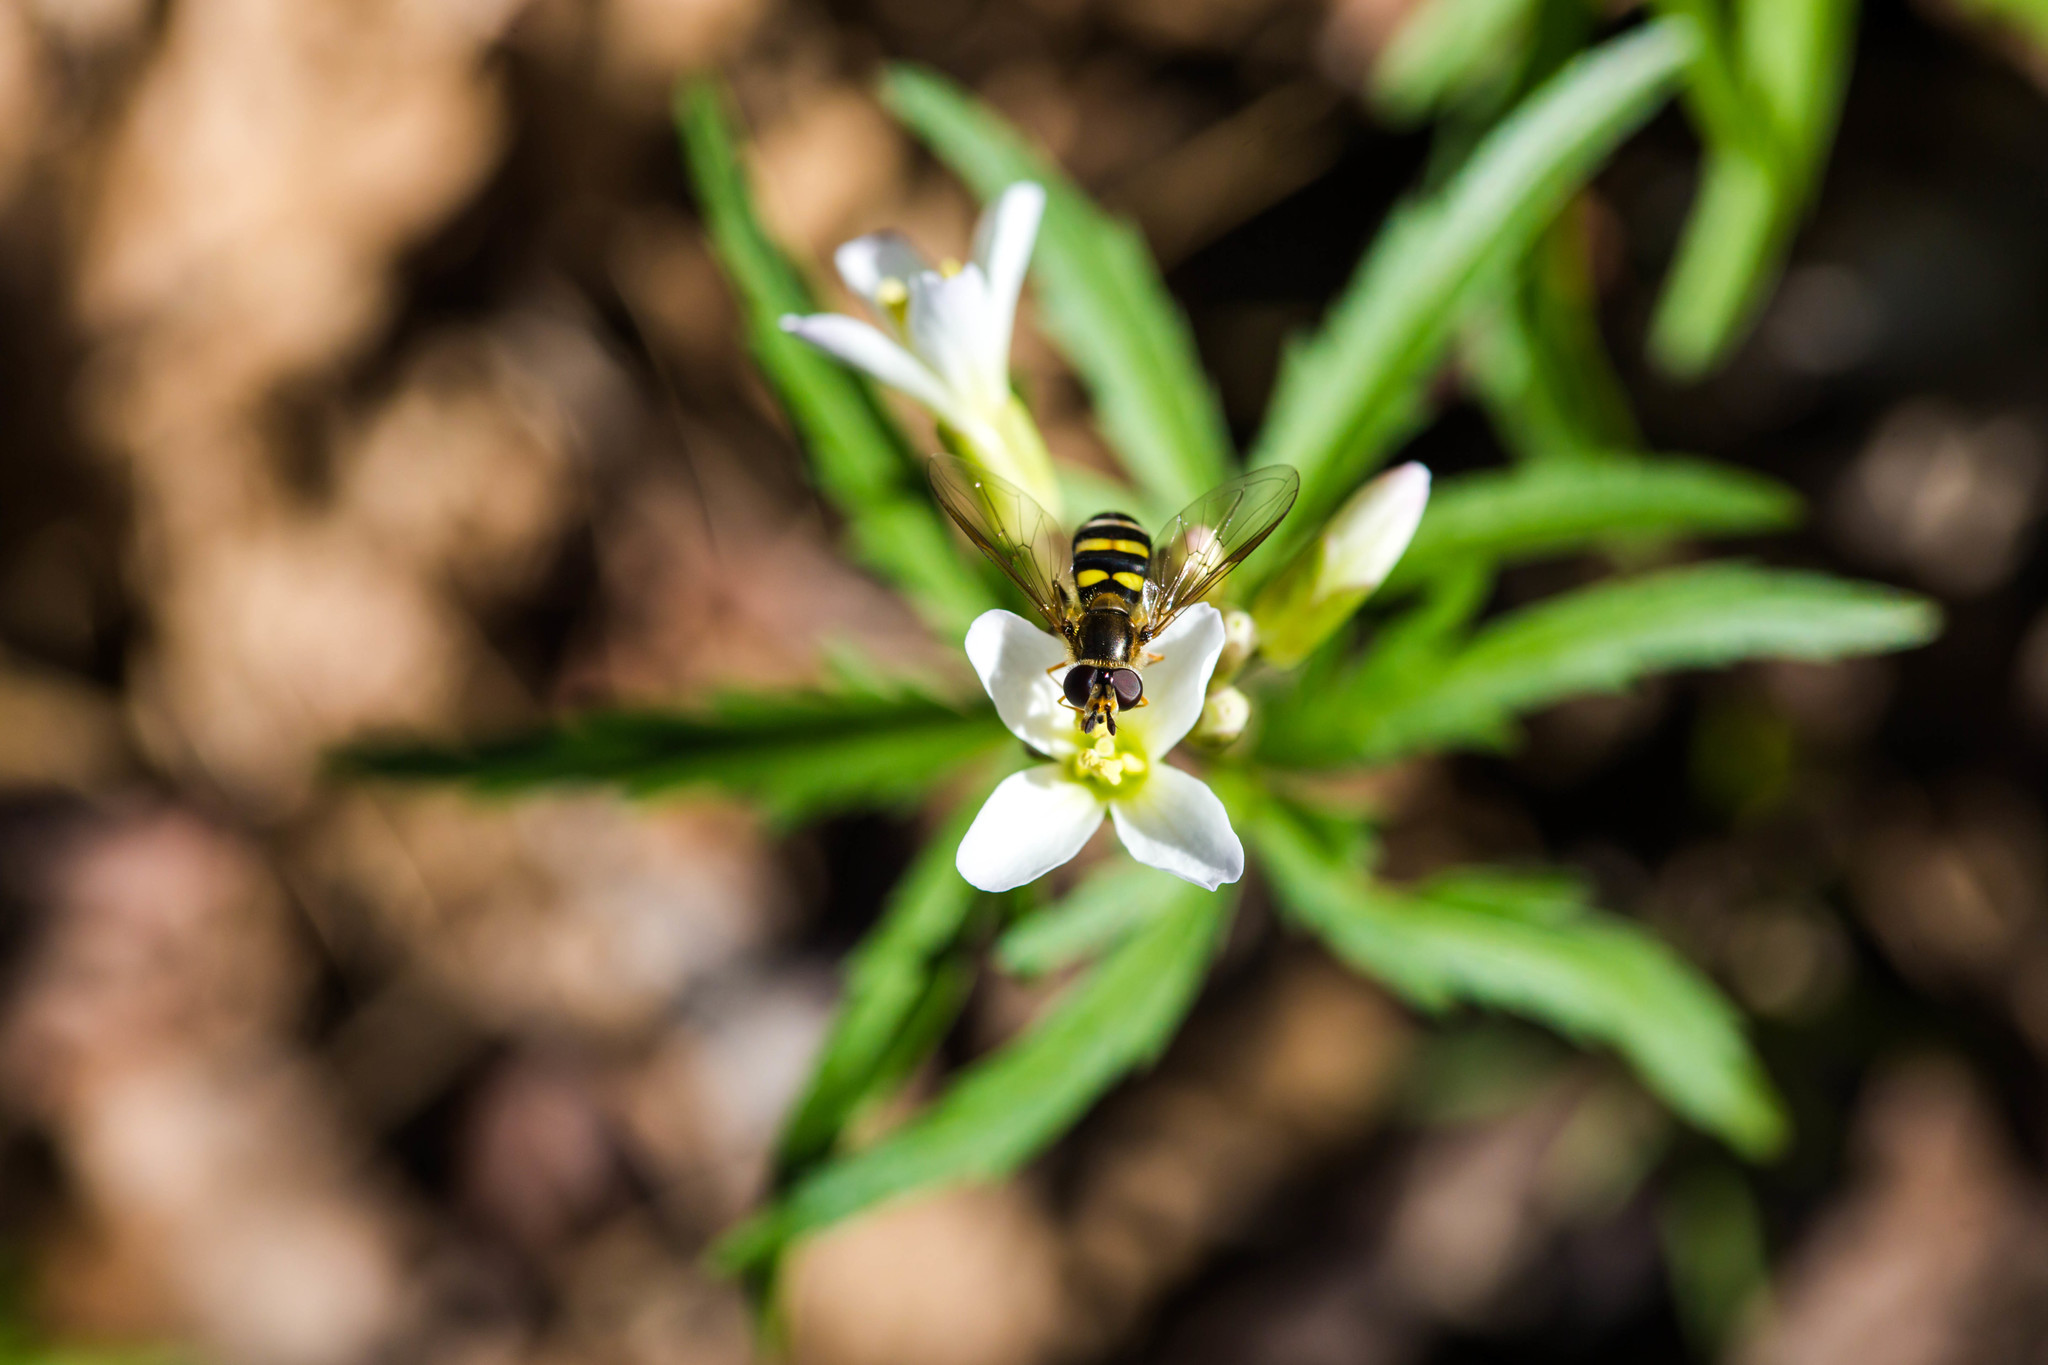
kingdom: Animalia
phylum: Arthropoda
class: Insecta
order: Diptera
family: Syrphidae
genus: Eupeodes
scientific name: Eupeodes
